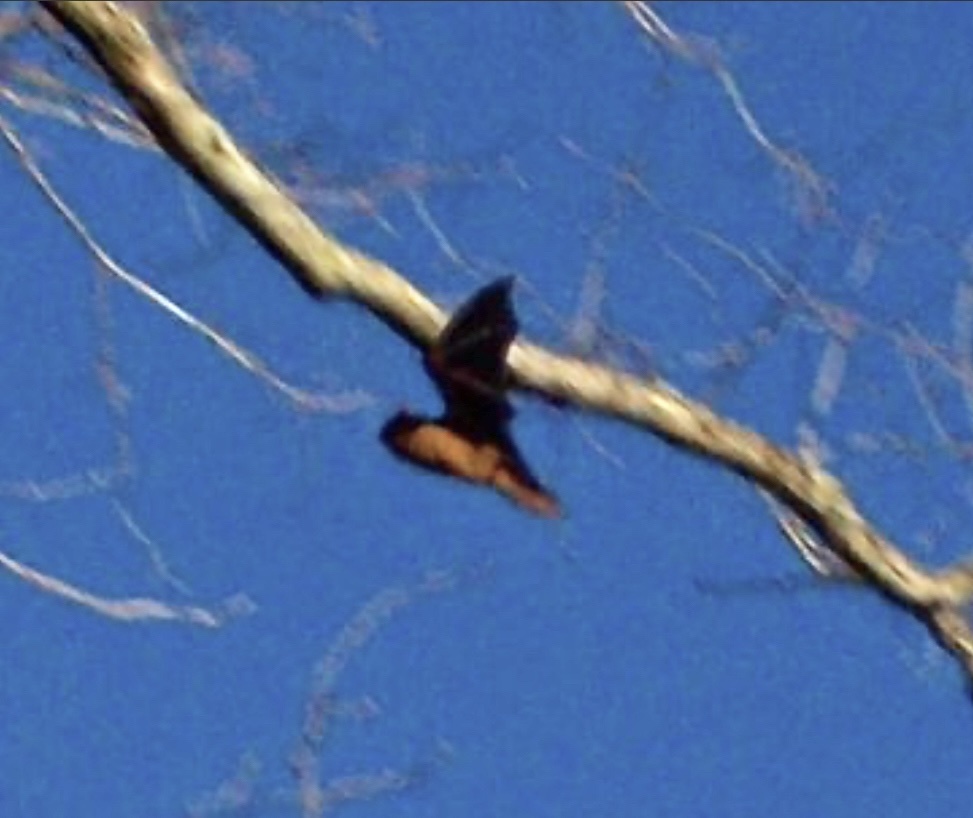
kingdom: Animalia
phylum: Chordata
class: Mammalia
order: Chiroptera
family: Vespertilionidae
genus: Lasiurus
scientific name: Lasiurus borealis
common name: Eastern red bat
